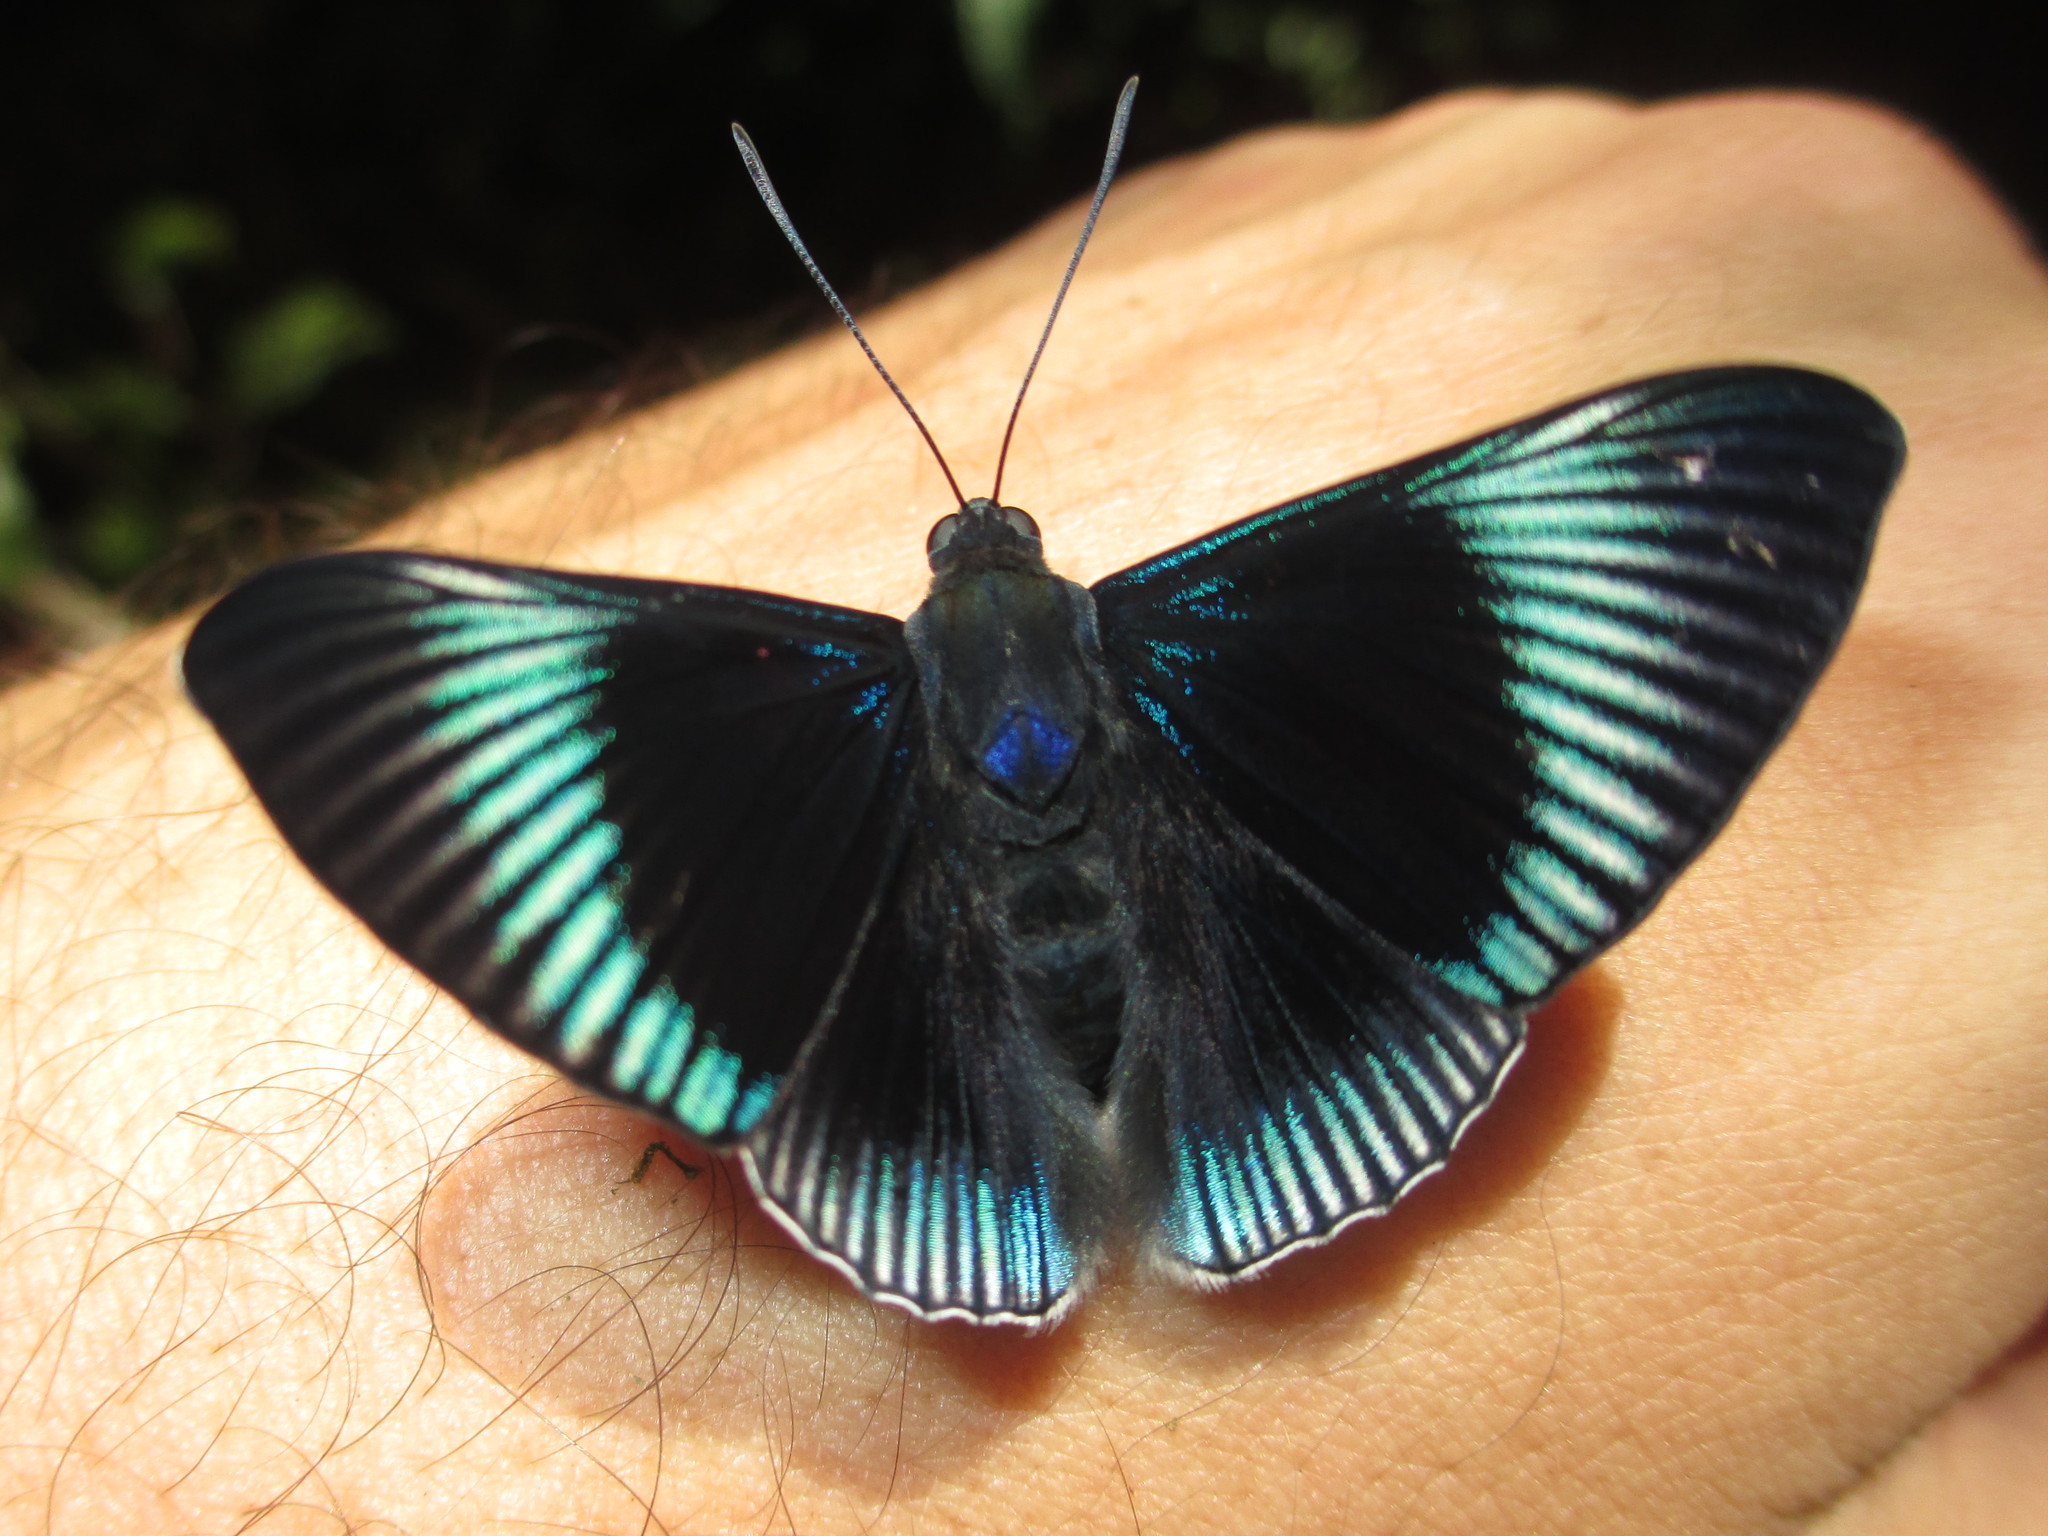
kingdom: Animalia
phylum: Arthropoda
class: Insecta
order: Lepidoptera
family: Riodinidae
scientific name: Riodinidae
